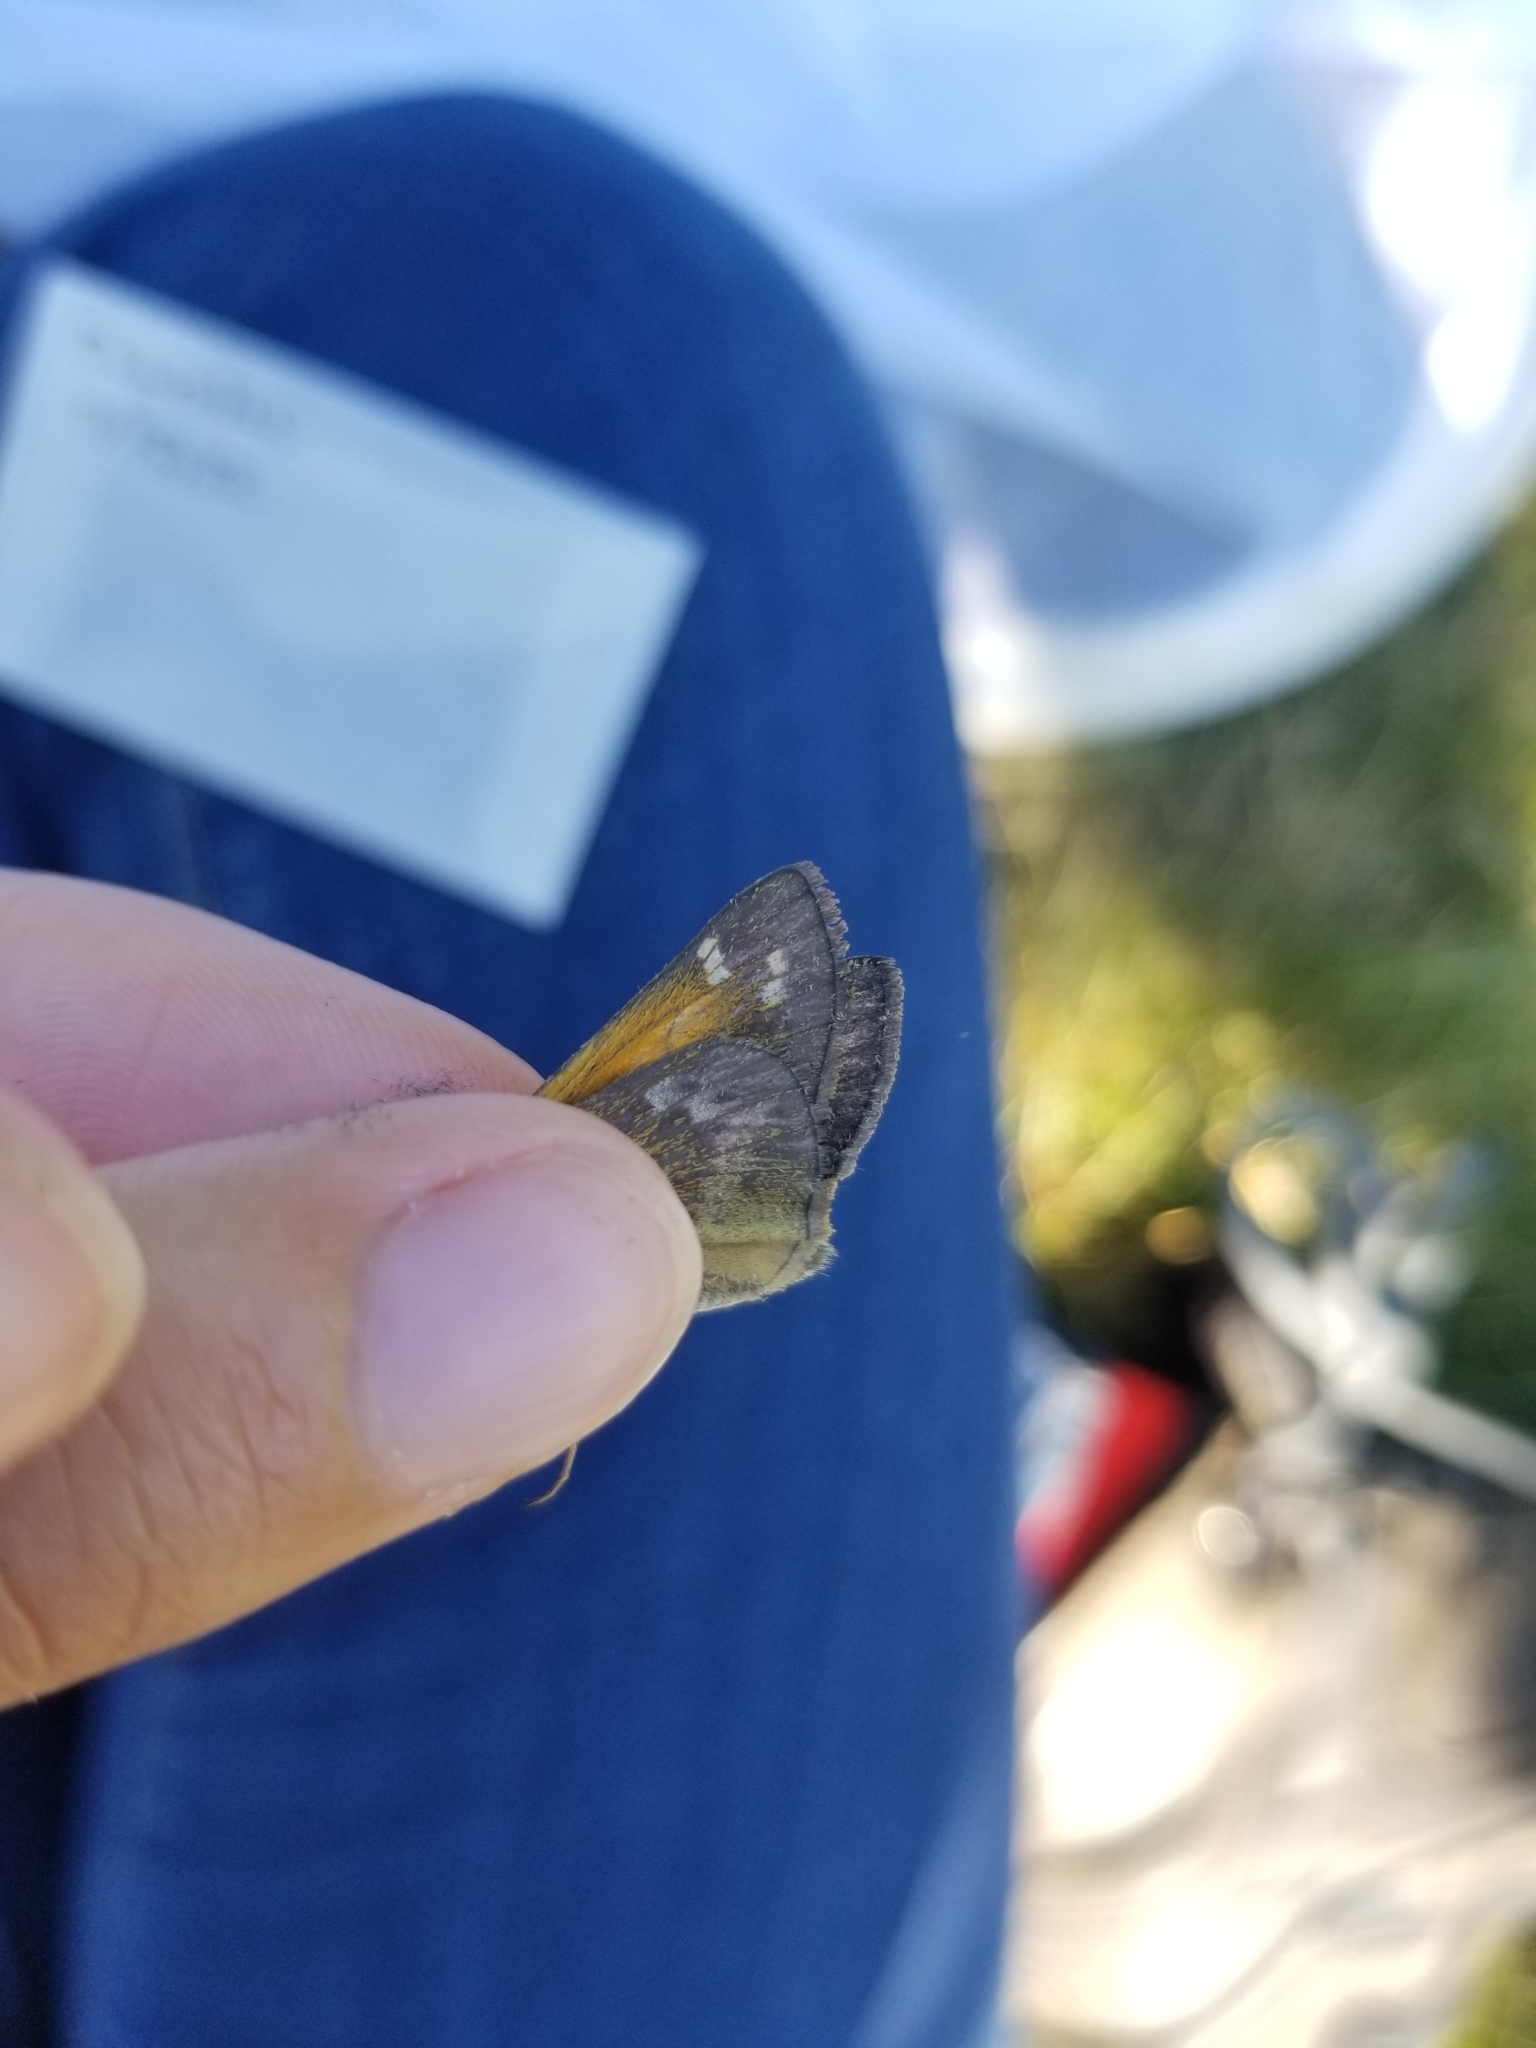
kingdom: Animalia
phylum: Arthropoda
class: Insecta
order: Lepidoptera
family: Hesperiidae
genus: Atalopedes
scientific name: Atalopedes
